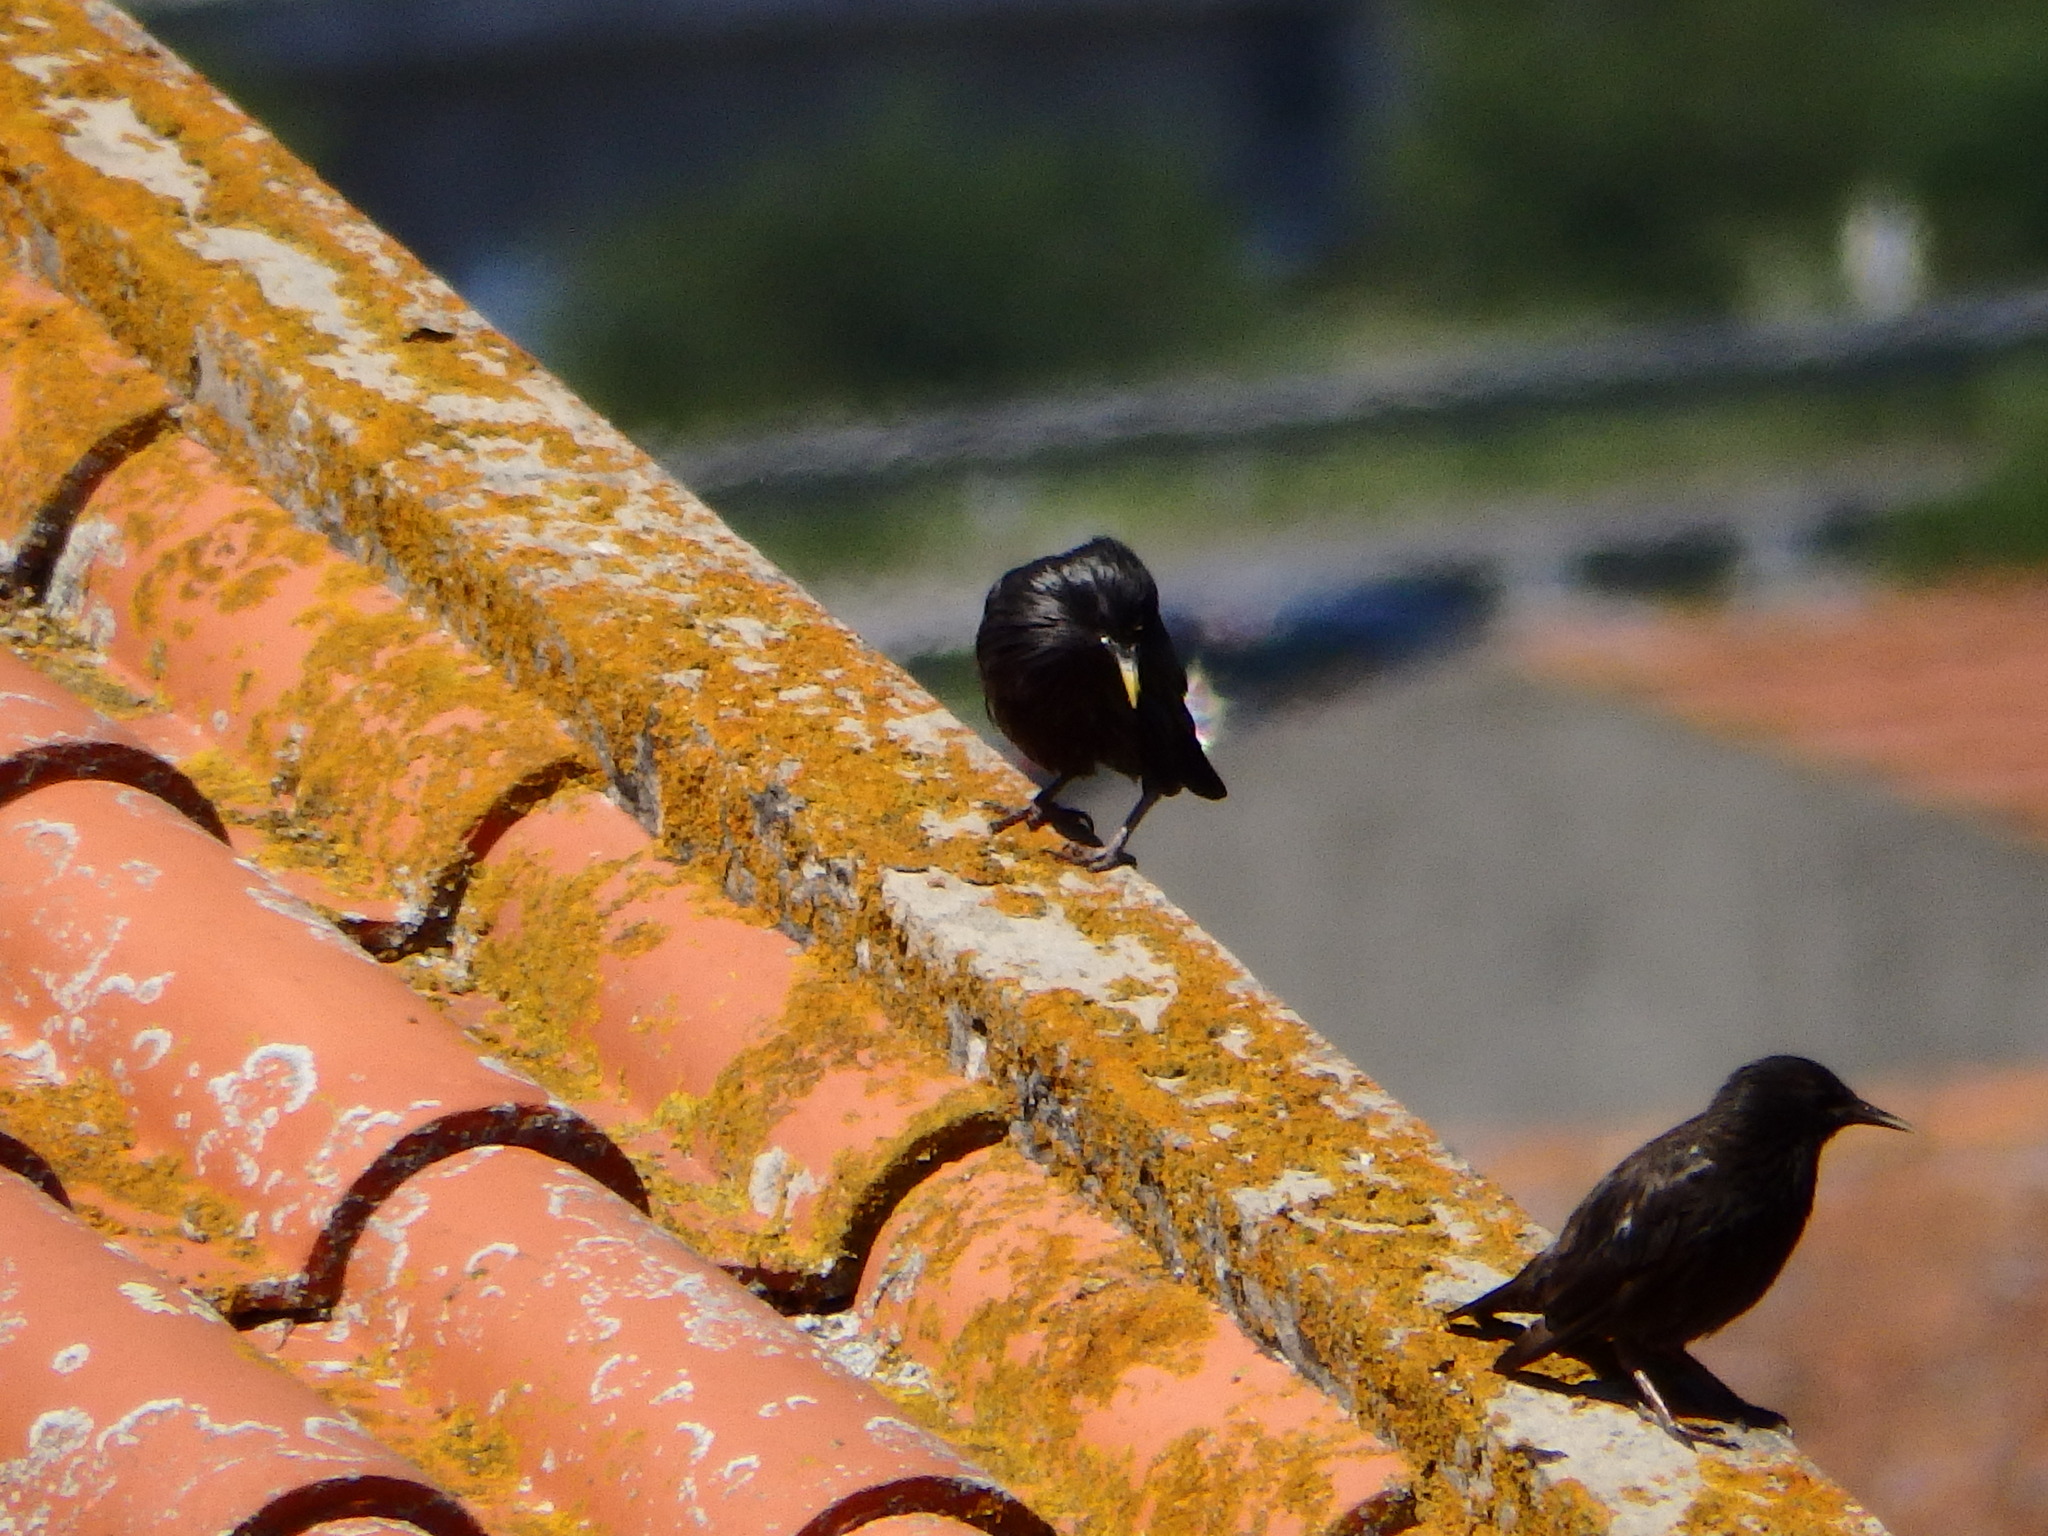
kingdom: Animalia
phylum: Chordata
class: Aves
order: Passeriformes
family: Sturnidae
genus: Sturnus
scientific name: Sturnus unicolor
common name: Spotless starling
